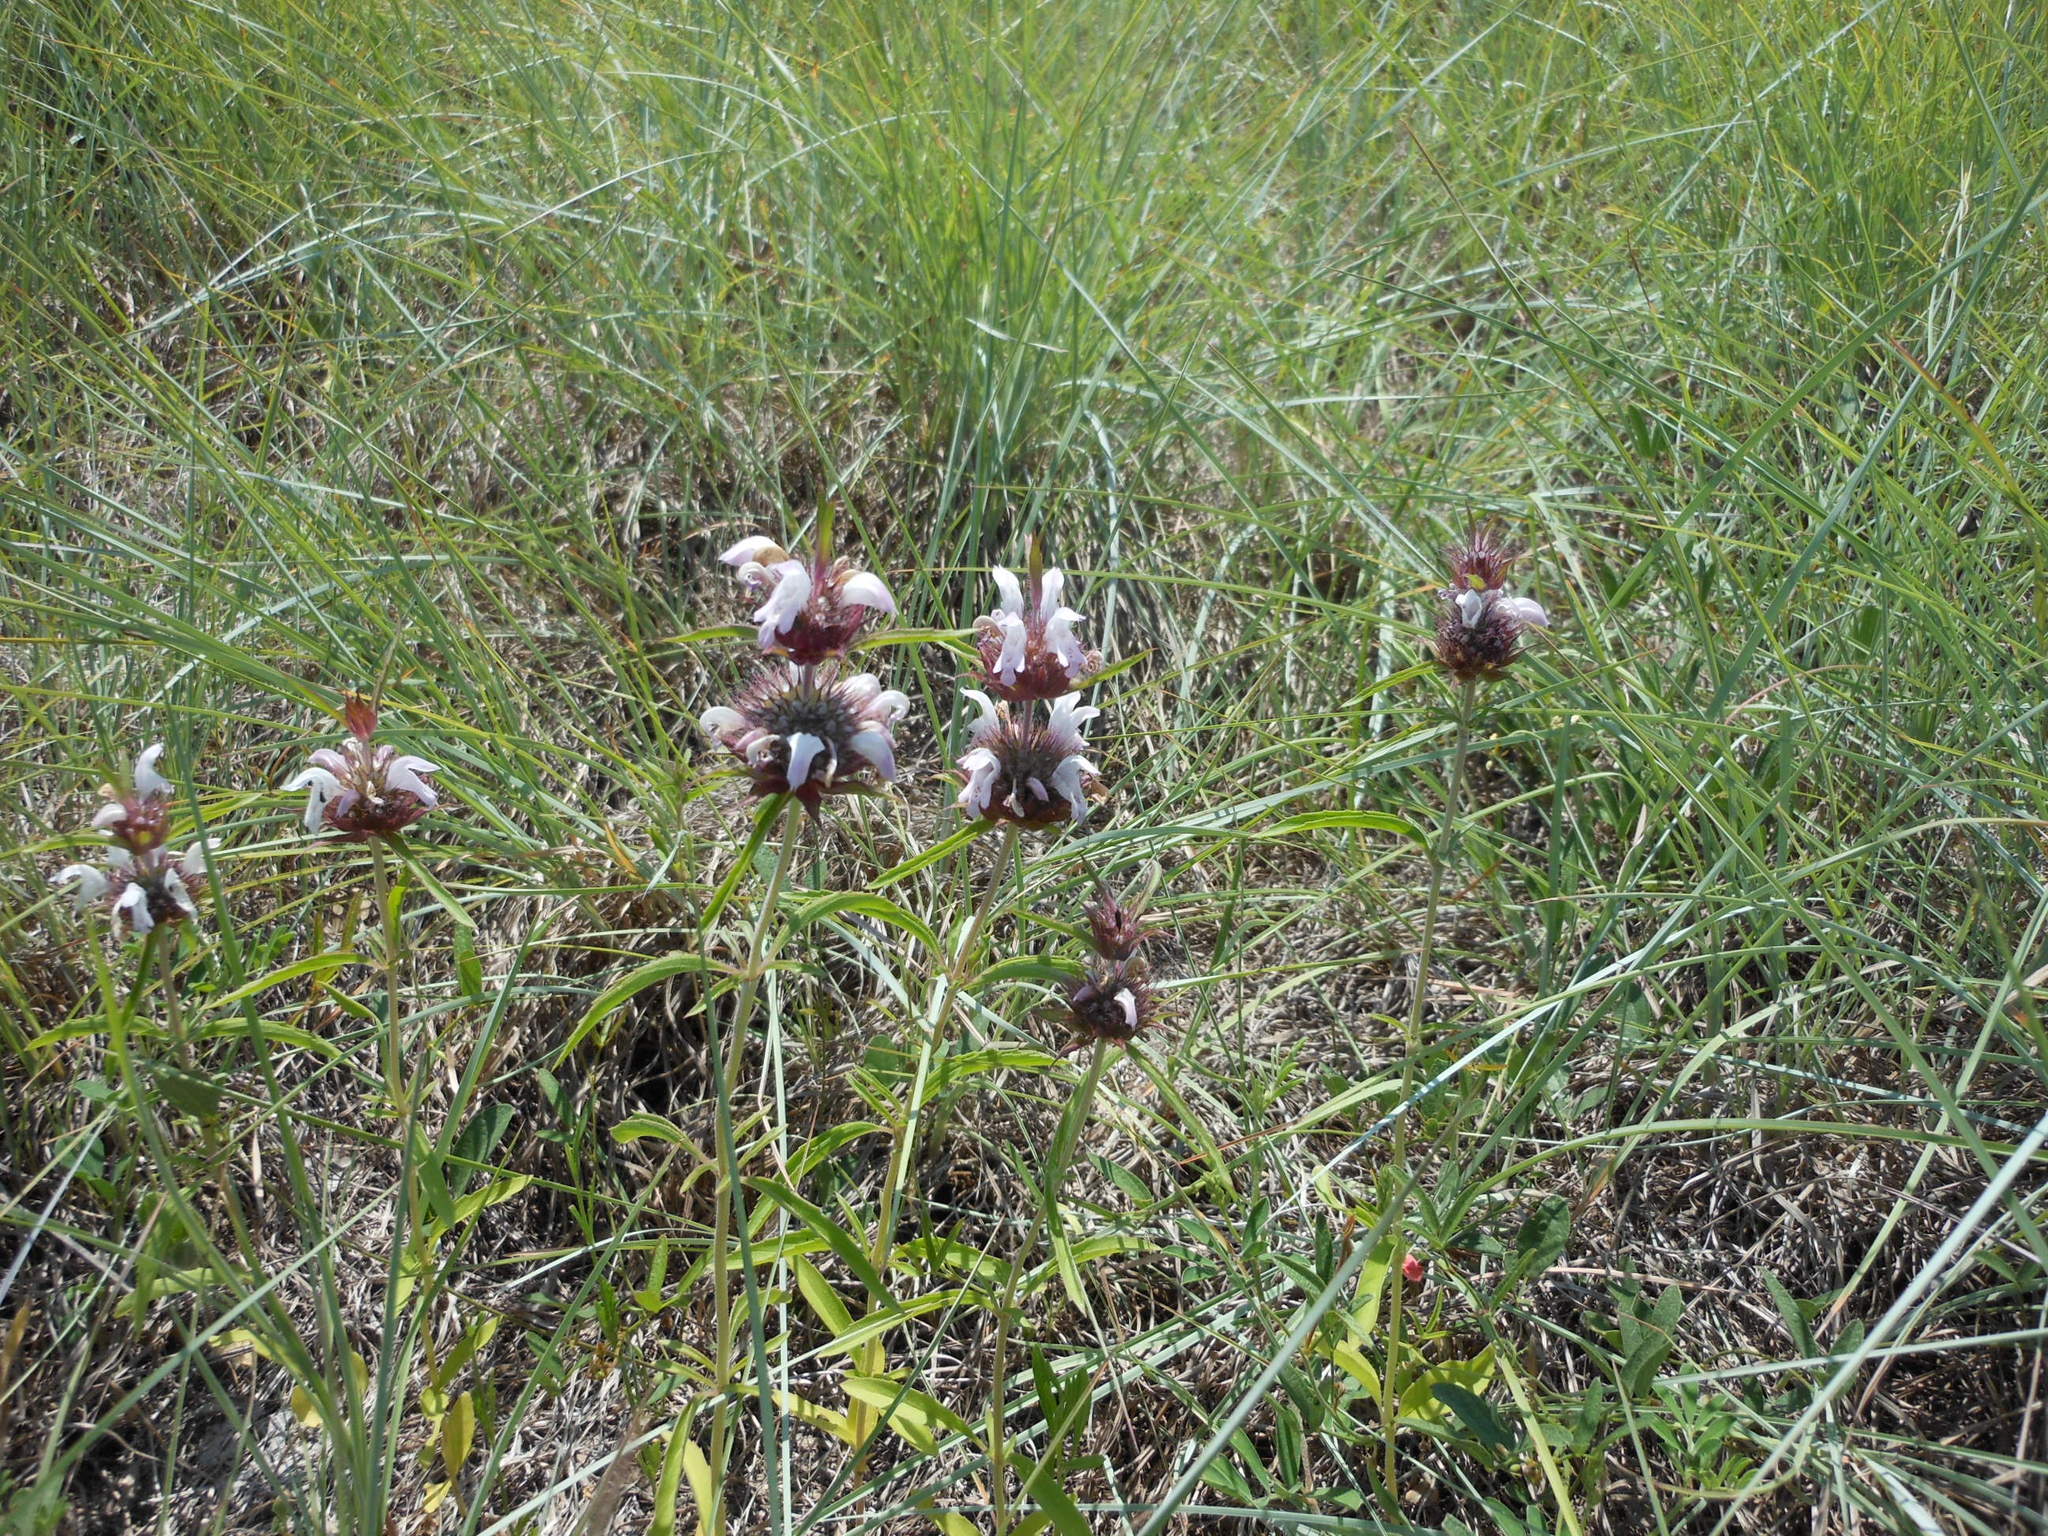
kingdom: Plantae
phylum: Tracheophyta
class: Magnoliopsida
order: Lamiales
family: Lamiaceae
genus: Monarda
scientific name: Monarda clinopodioides
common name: Basil beebalm
